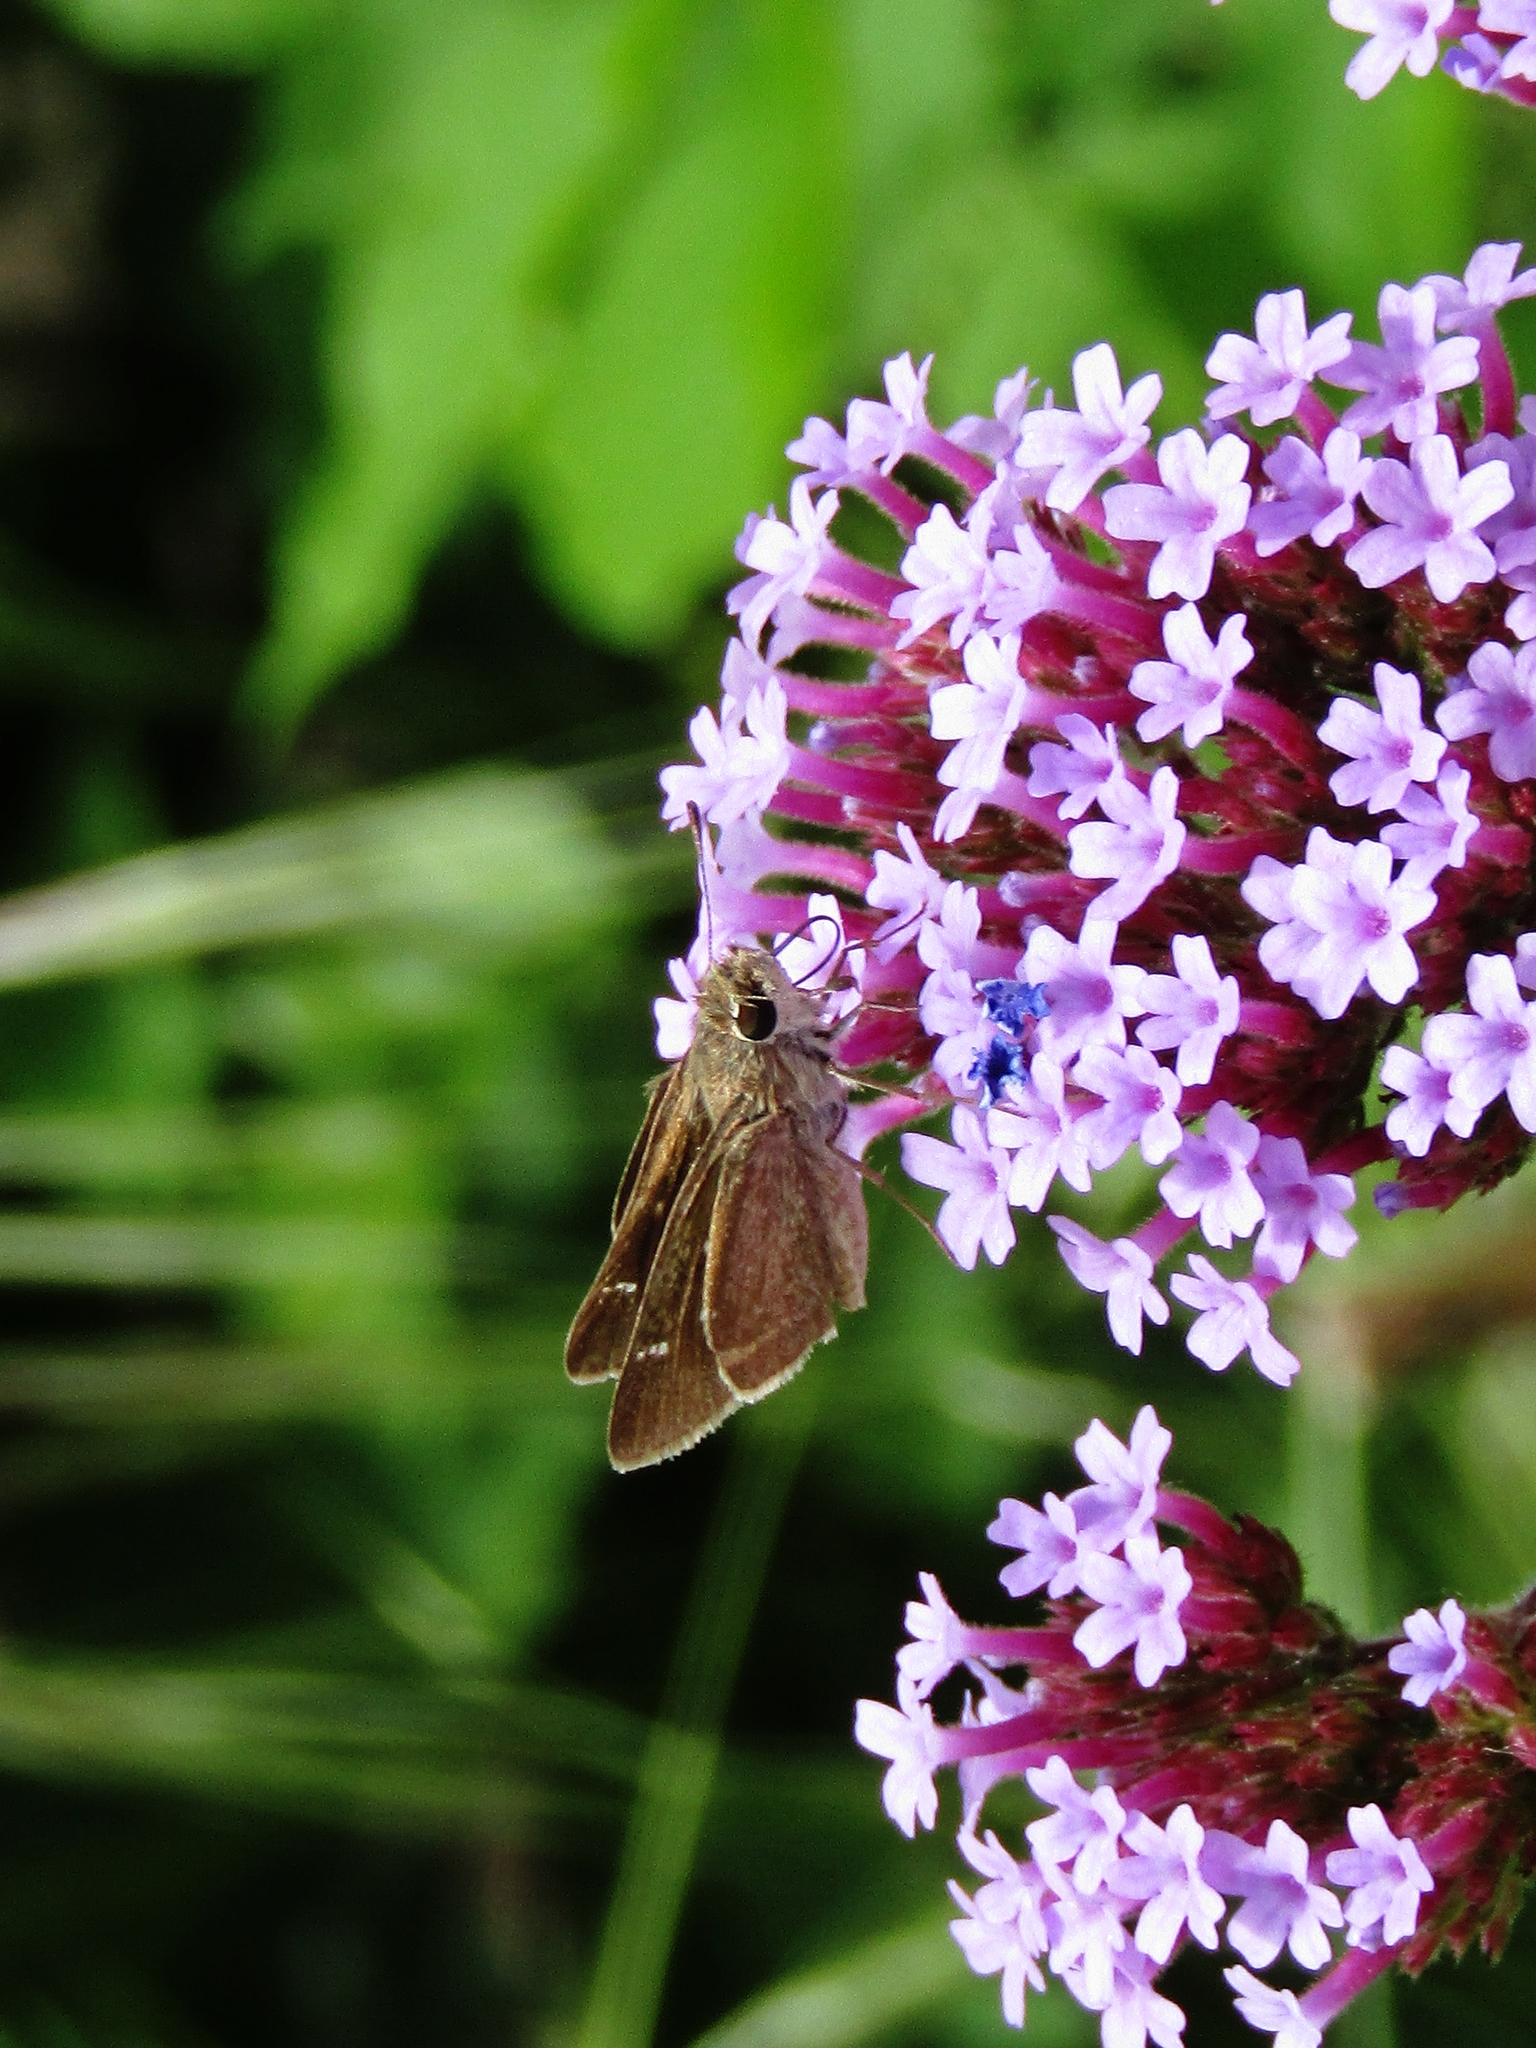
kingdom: Animalia
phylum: Arthropoda
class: Insecta
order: Lepidoptera
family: Hesperiidae
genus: Lerodea
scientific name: Lerodea eufala
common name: Eufala skipper
